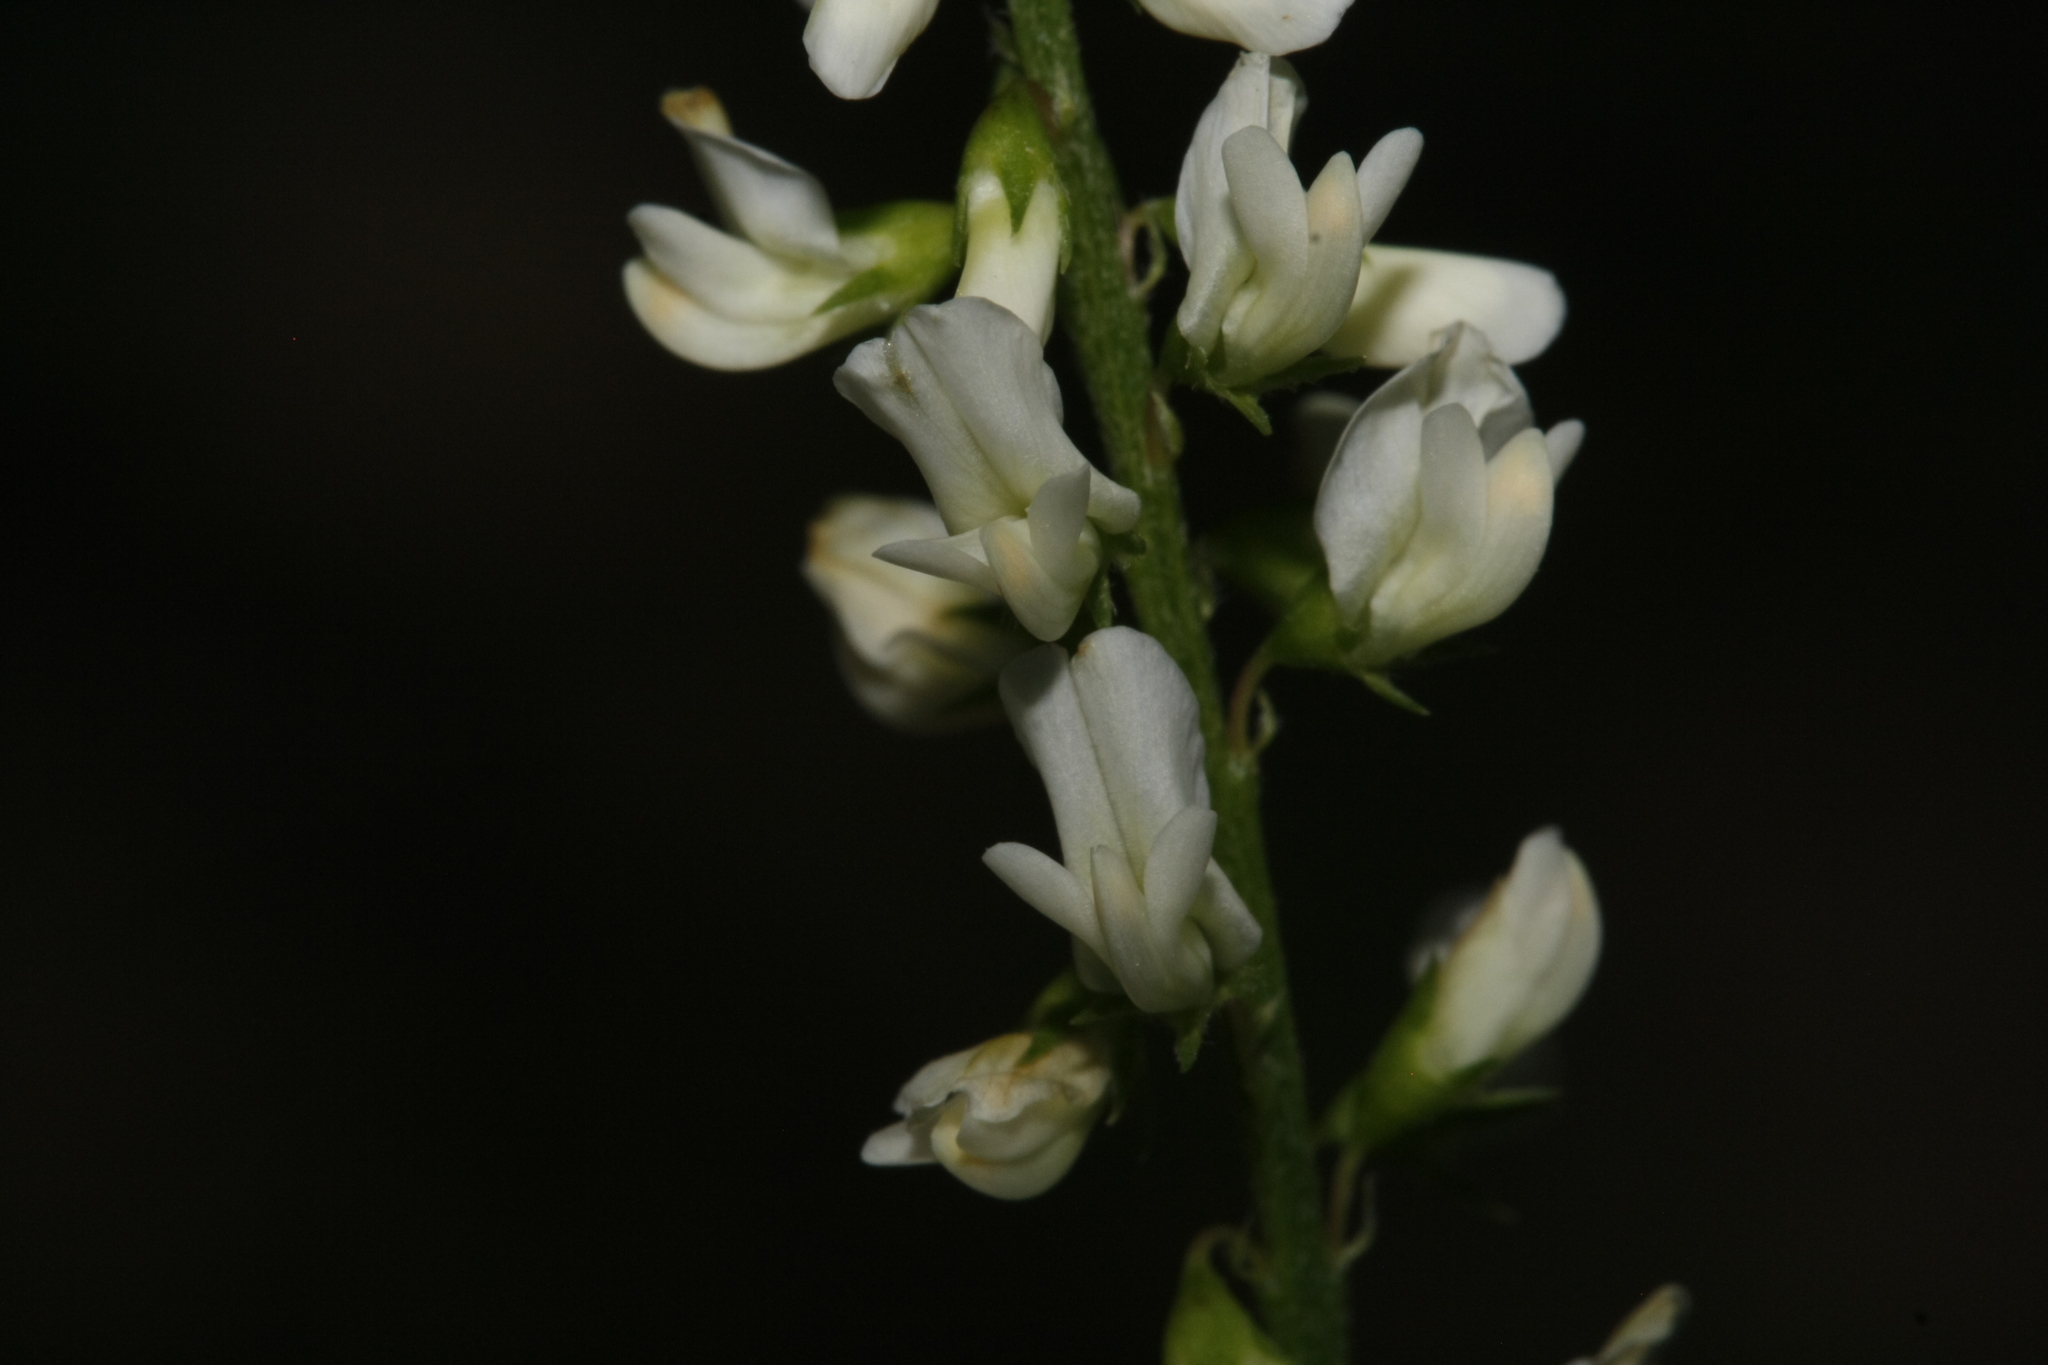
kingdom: Plantae
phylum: Tracheophyta
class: Magnoliopsida
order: Fabales
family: Fabaceae
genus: Melilotus
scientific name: Melilotus albus
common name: White melilot
